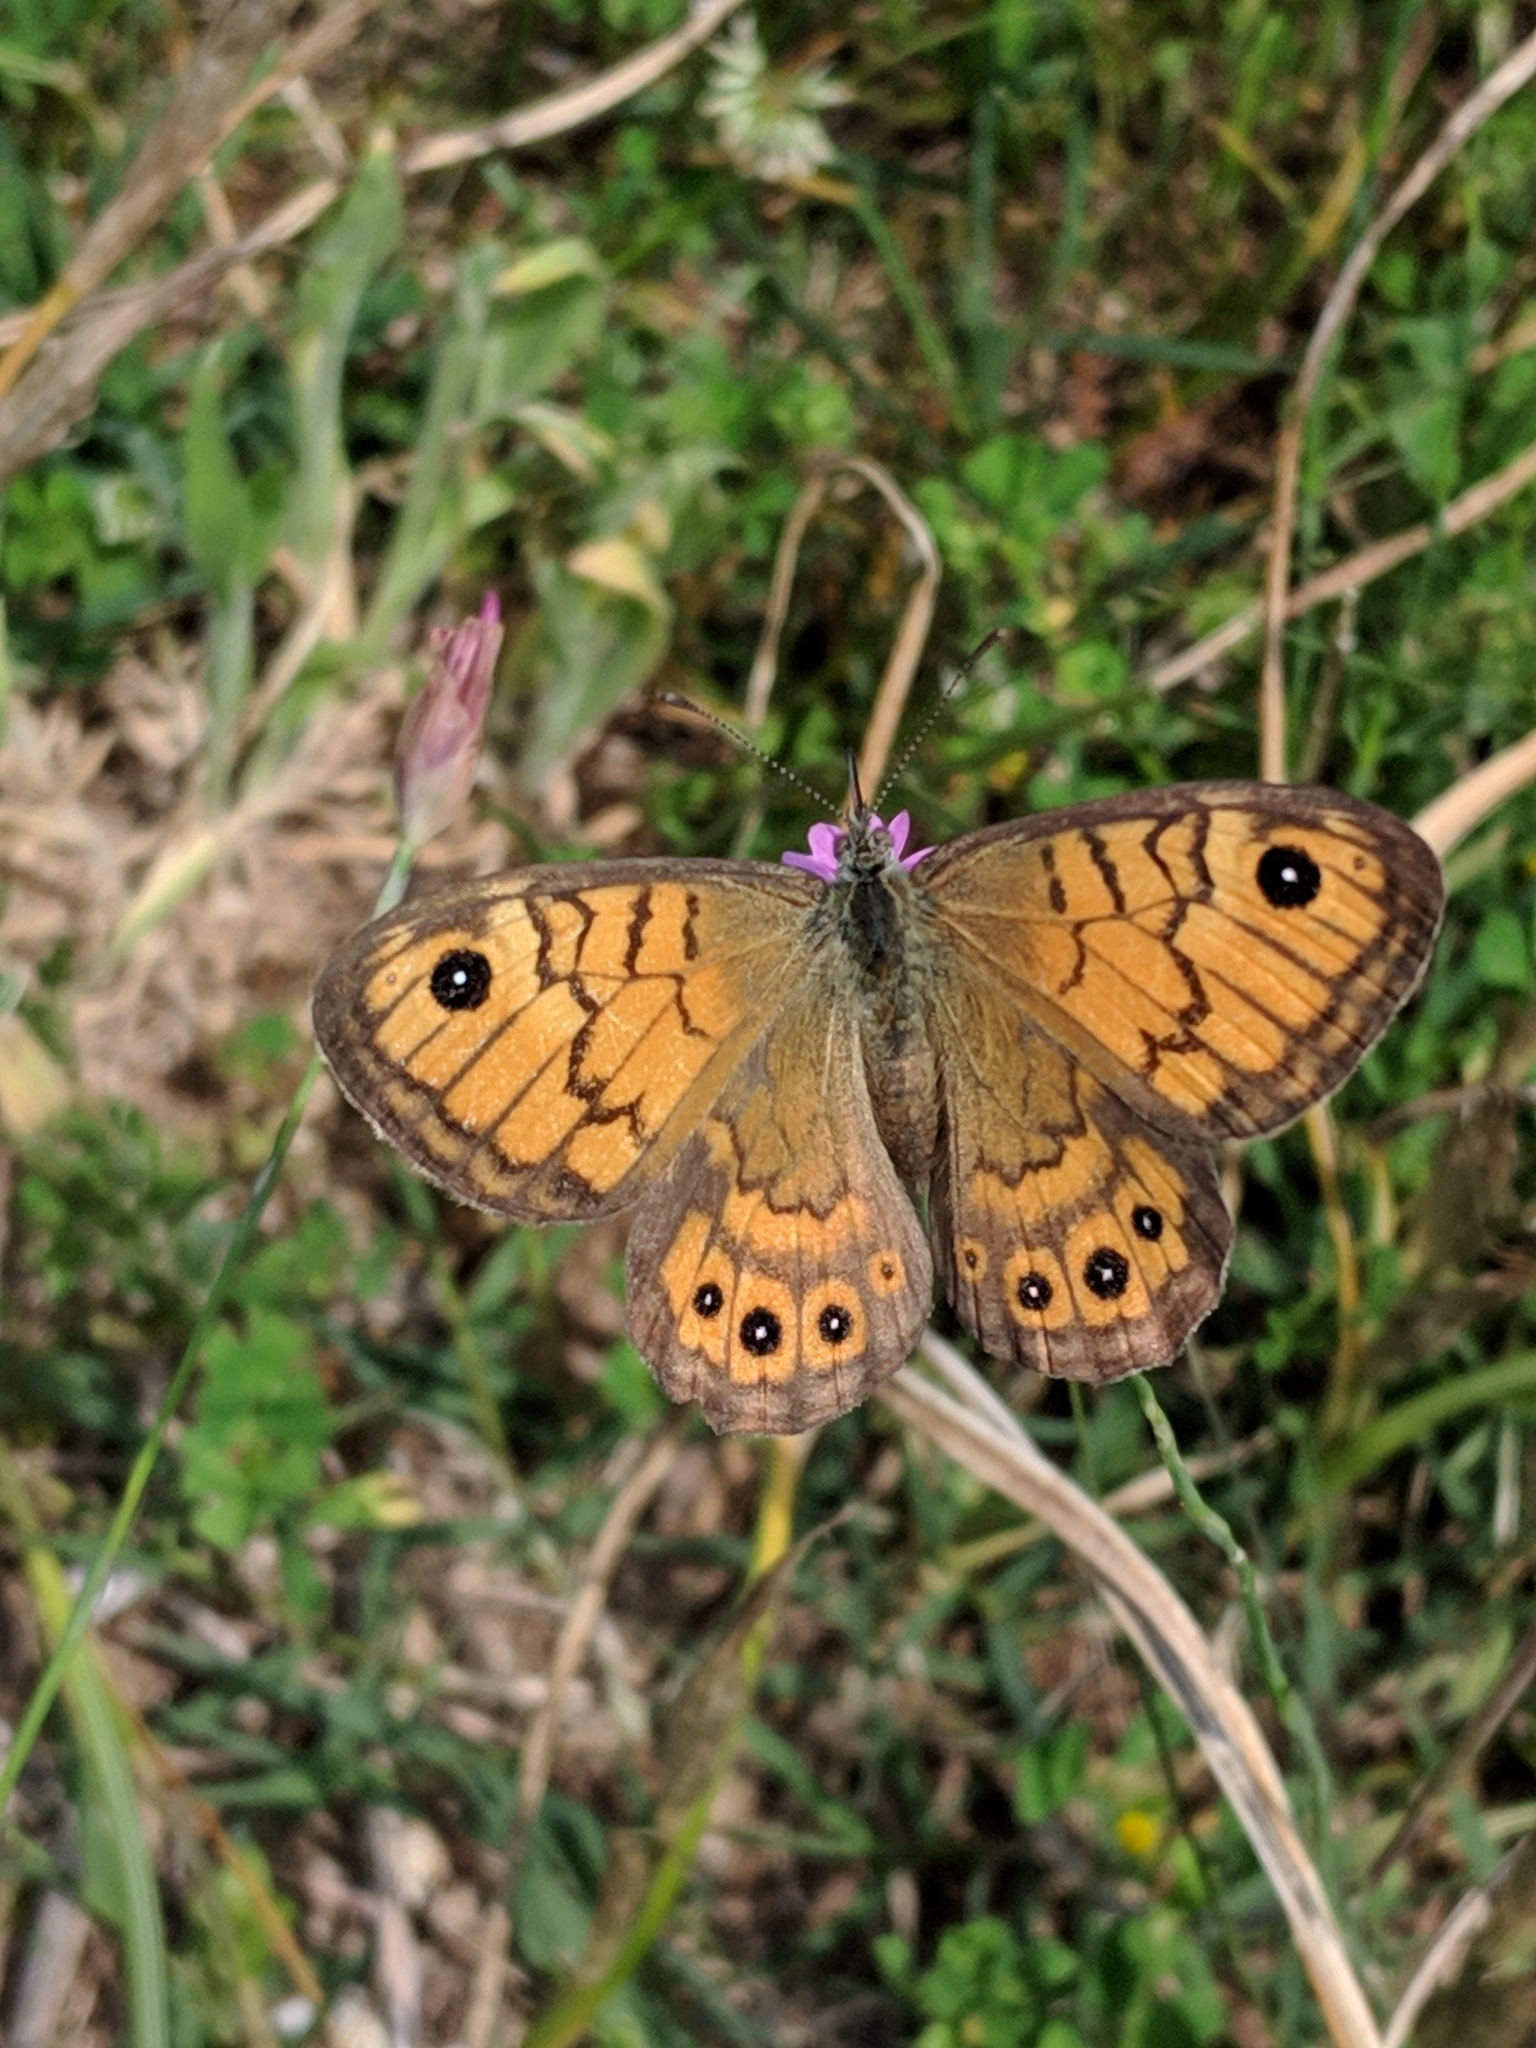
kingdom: Animalia
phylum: Arthropoda
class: Insecta
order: Lepidoptera
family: Nymphalidae
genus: Pararge
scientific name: Pararge Lasiommata megera
